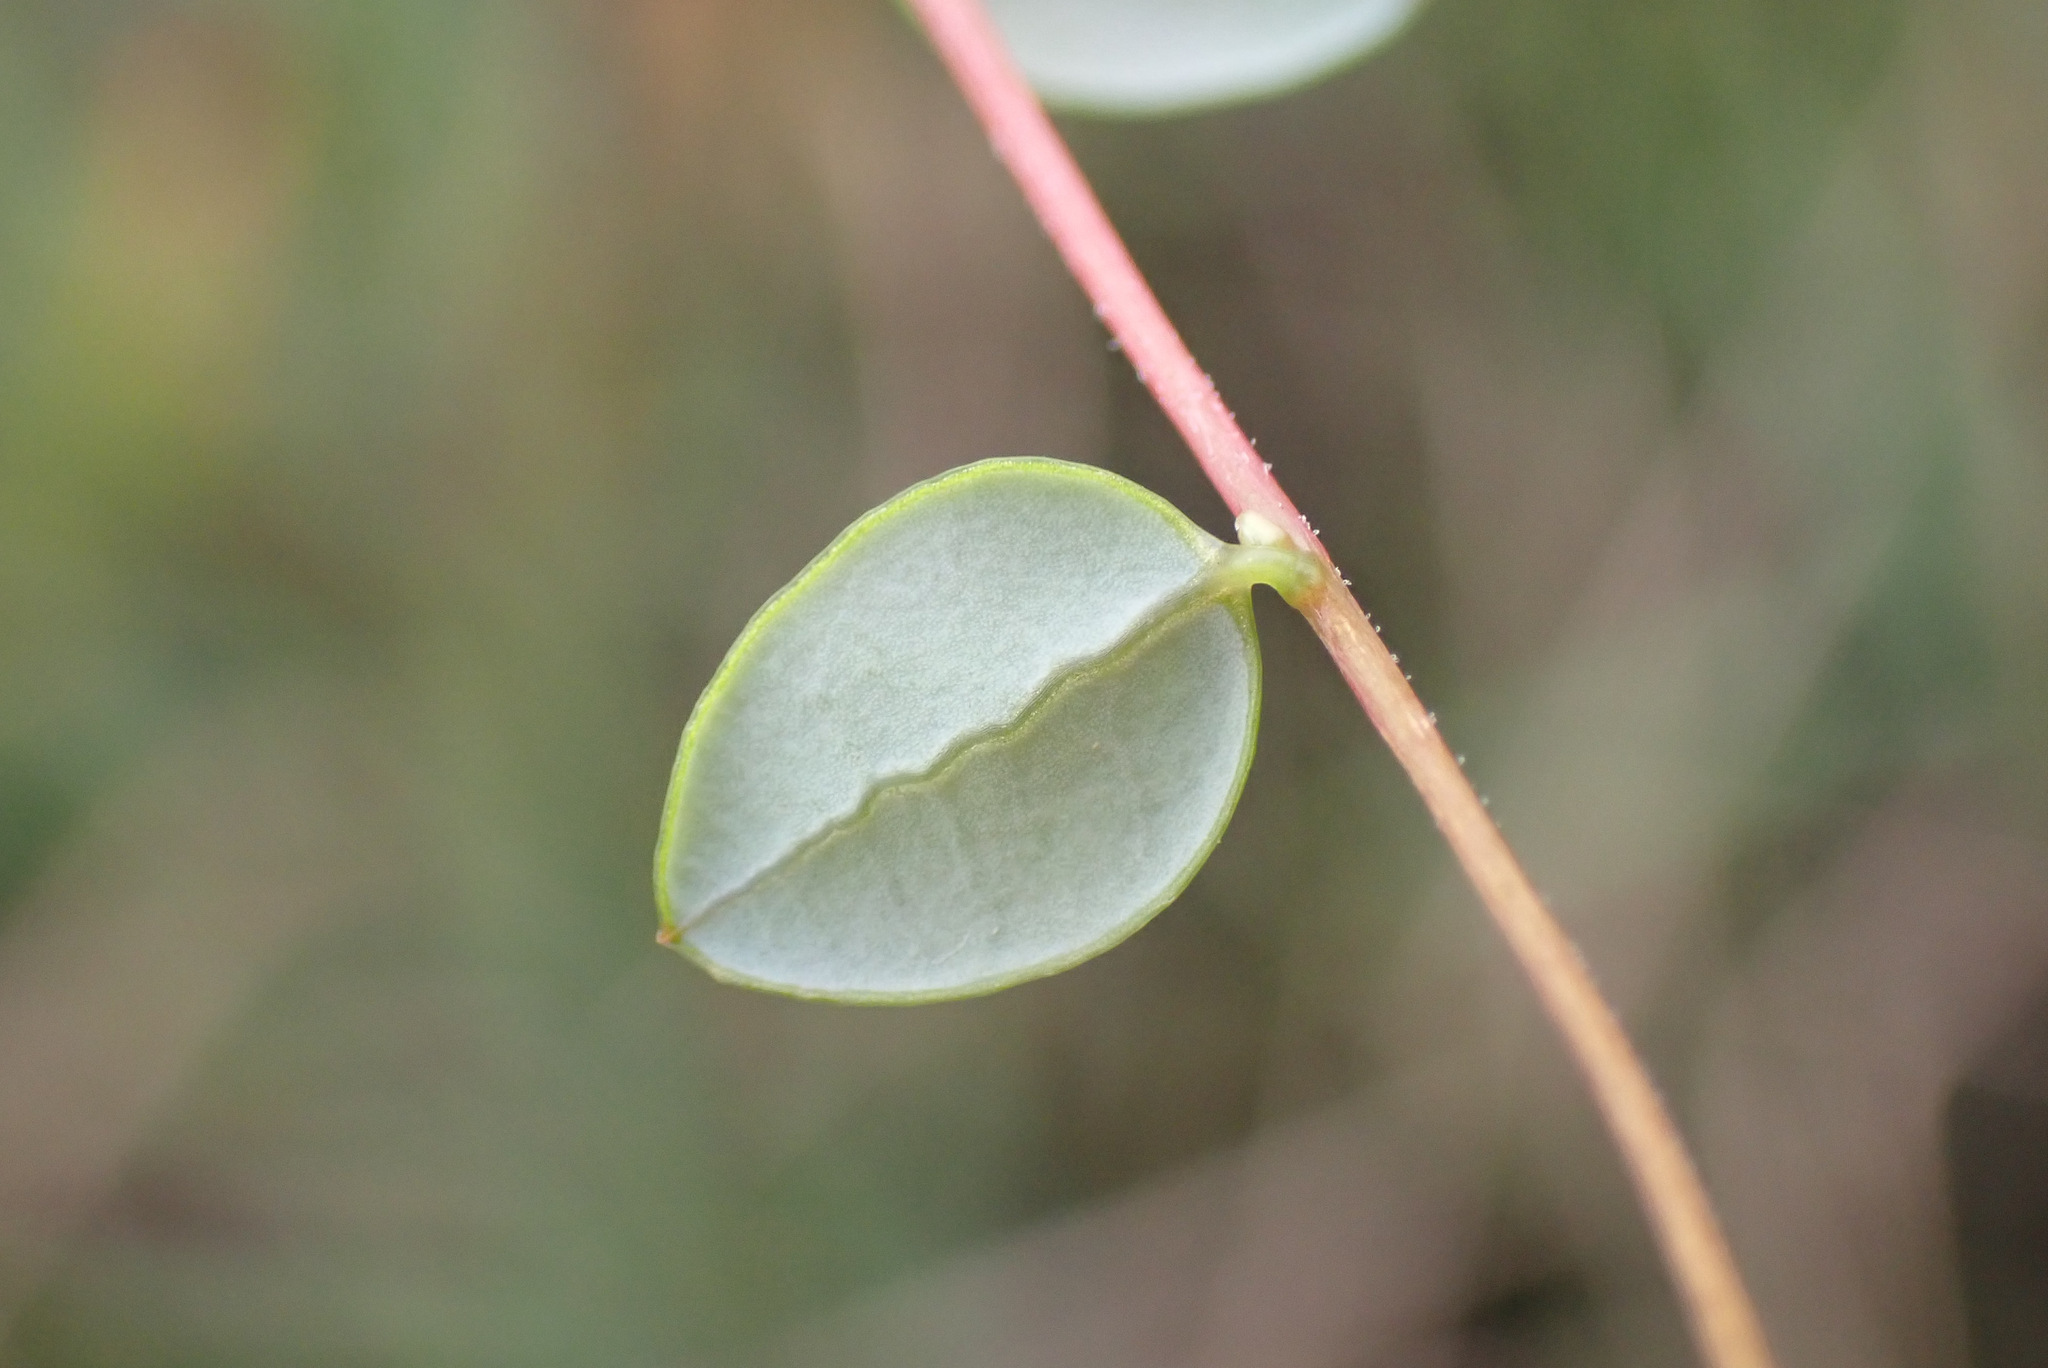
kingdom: Plantae
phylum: Tracheophyta
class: Magnoliopsida
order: Ericales
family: Ericaceae
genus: Vaccinium
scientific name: Vaccinium oxycoccos
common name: Cranberry
